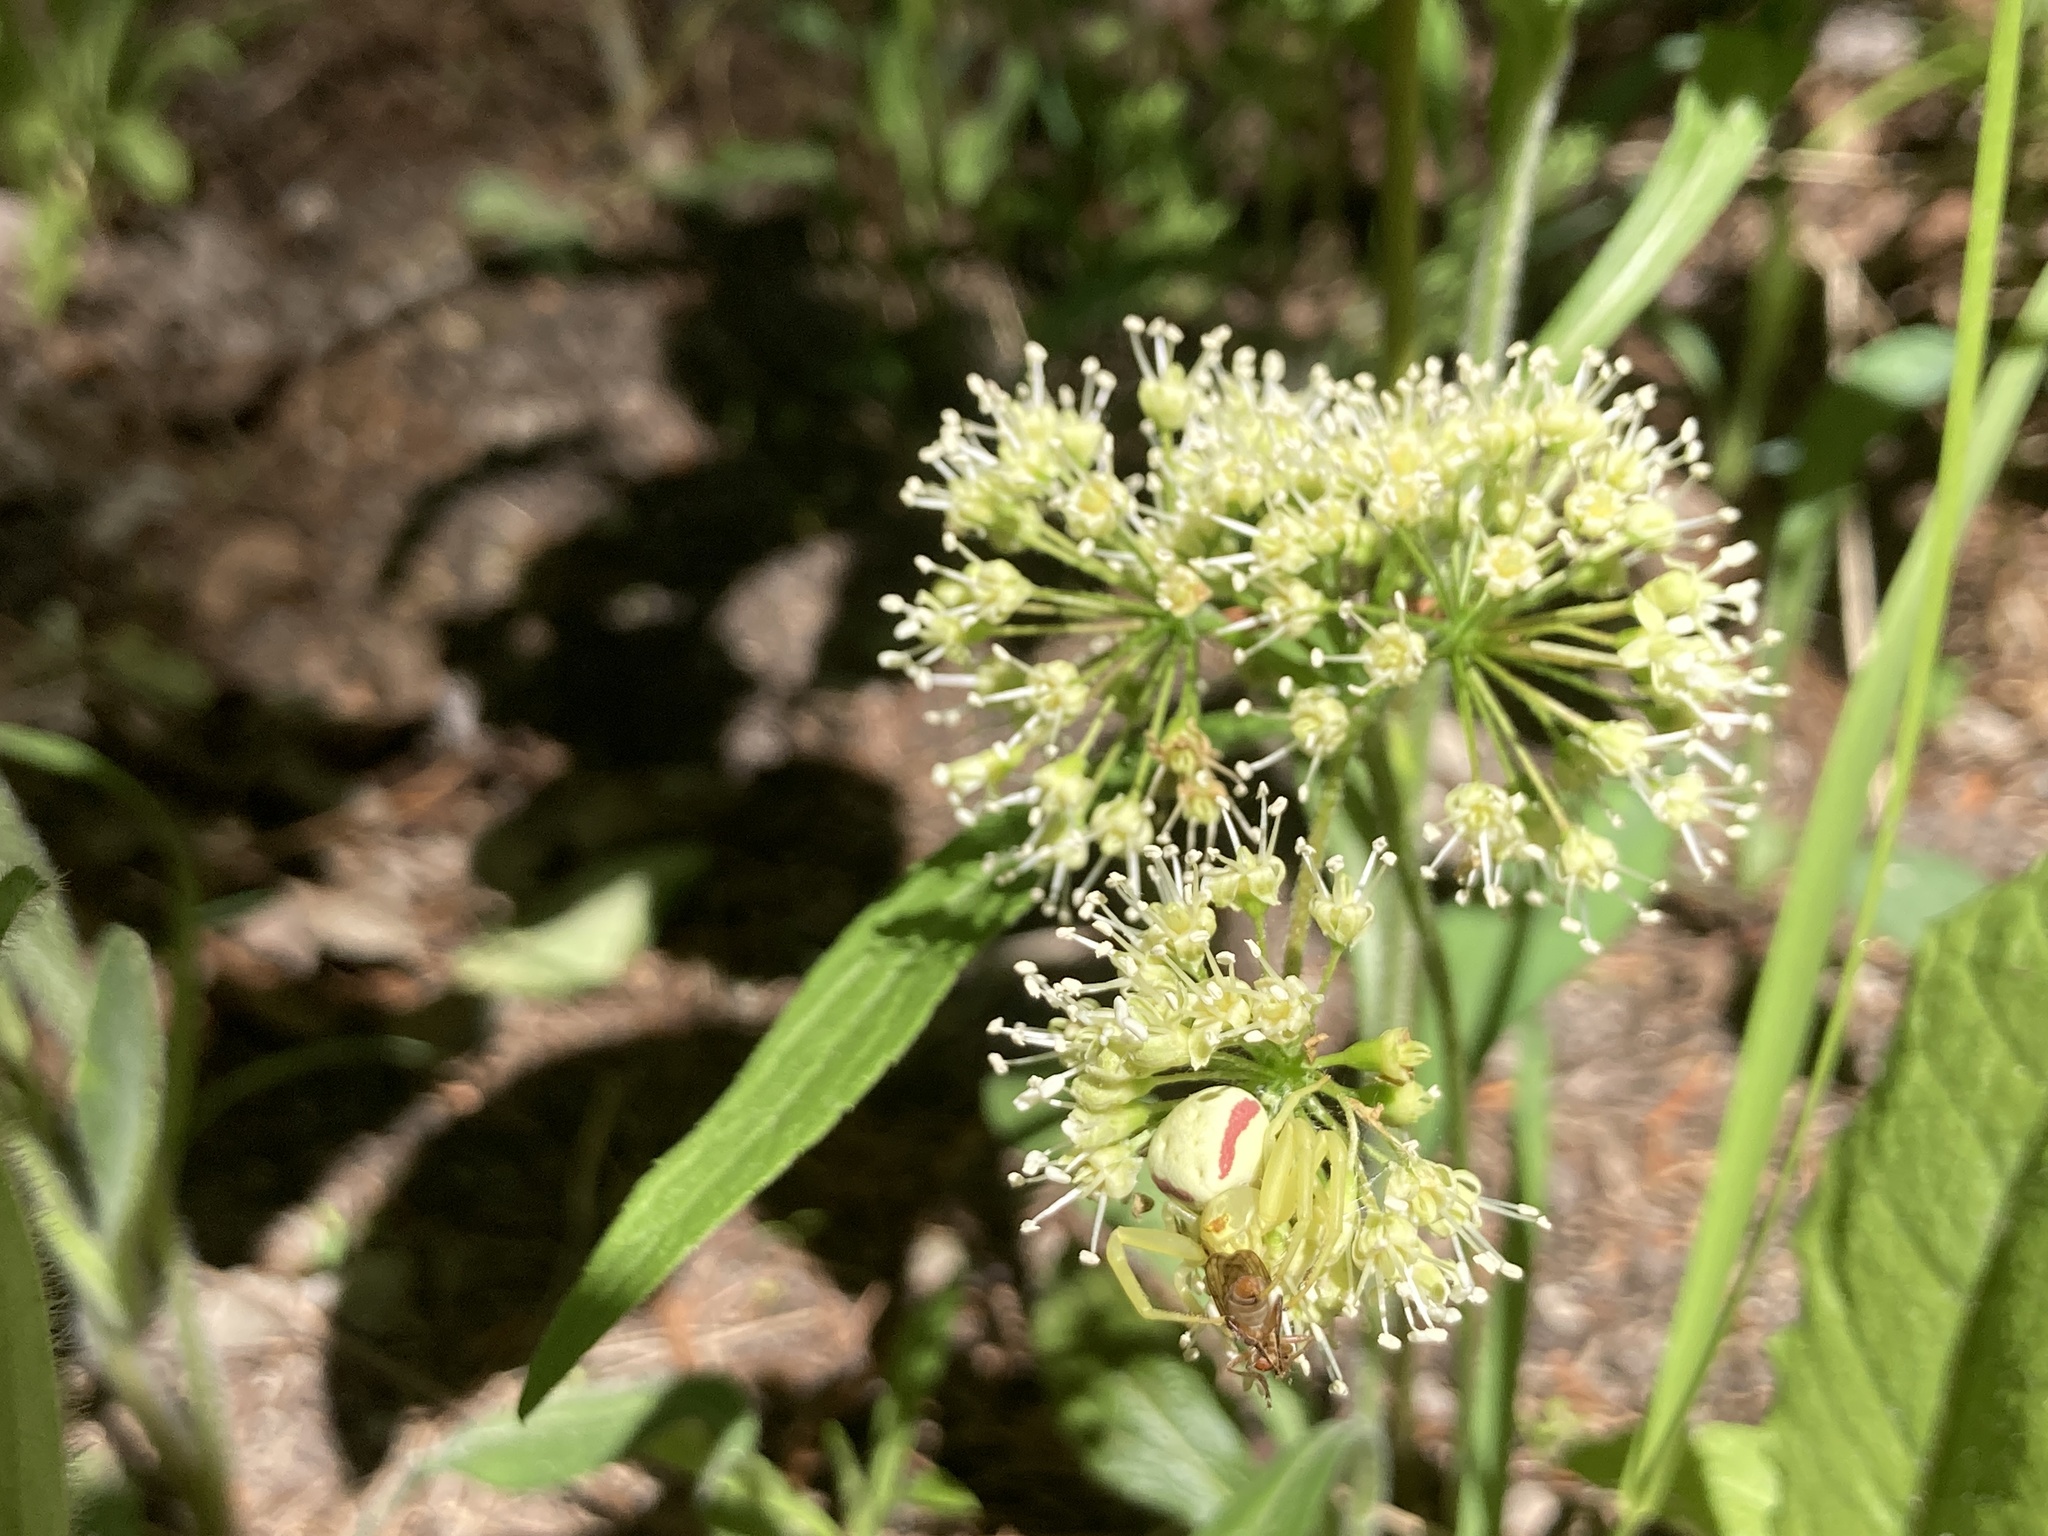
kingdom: Plantae
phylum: Tracheophyta
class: Magnoliopsida
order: Apiales
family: Araliaceae
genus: Aralia
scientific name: Aralia nudicaulis
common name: Wild sarsaparilla
